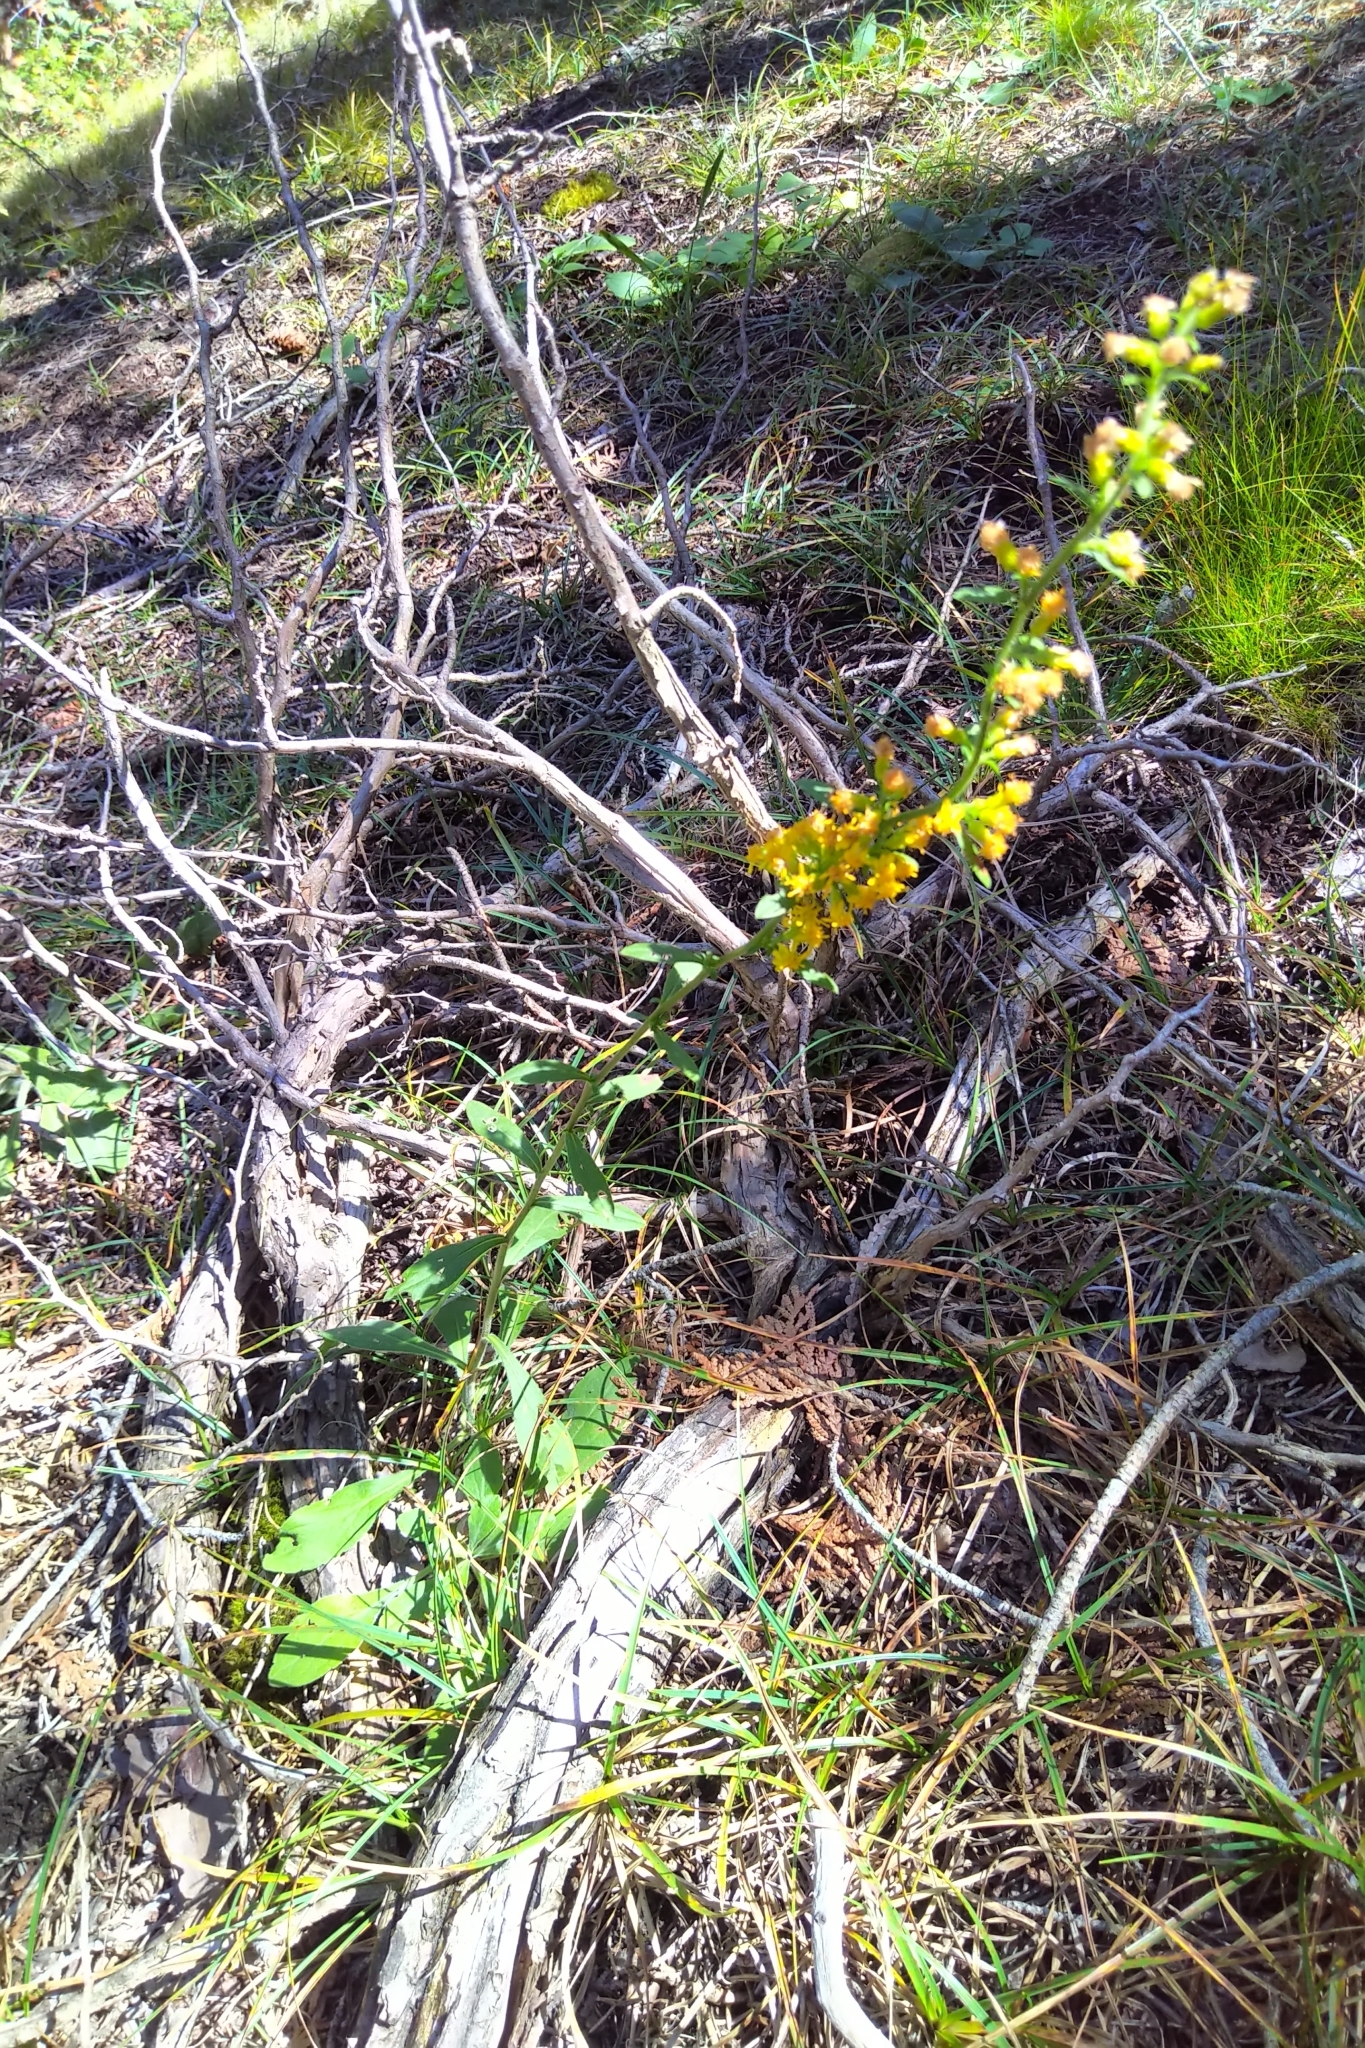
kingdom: Plantae
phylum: Tracheophyta
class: Magnoliopsida
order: Asterales
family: Asteraceae
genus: Solidago
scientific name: Solidago hispida
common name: Hairy goldenrod
